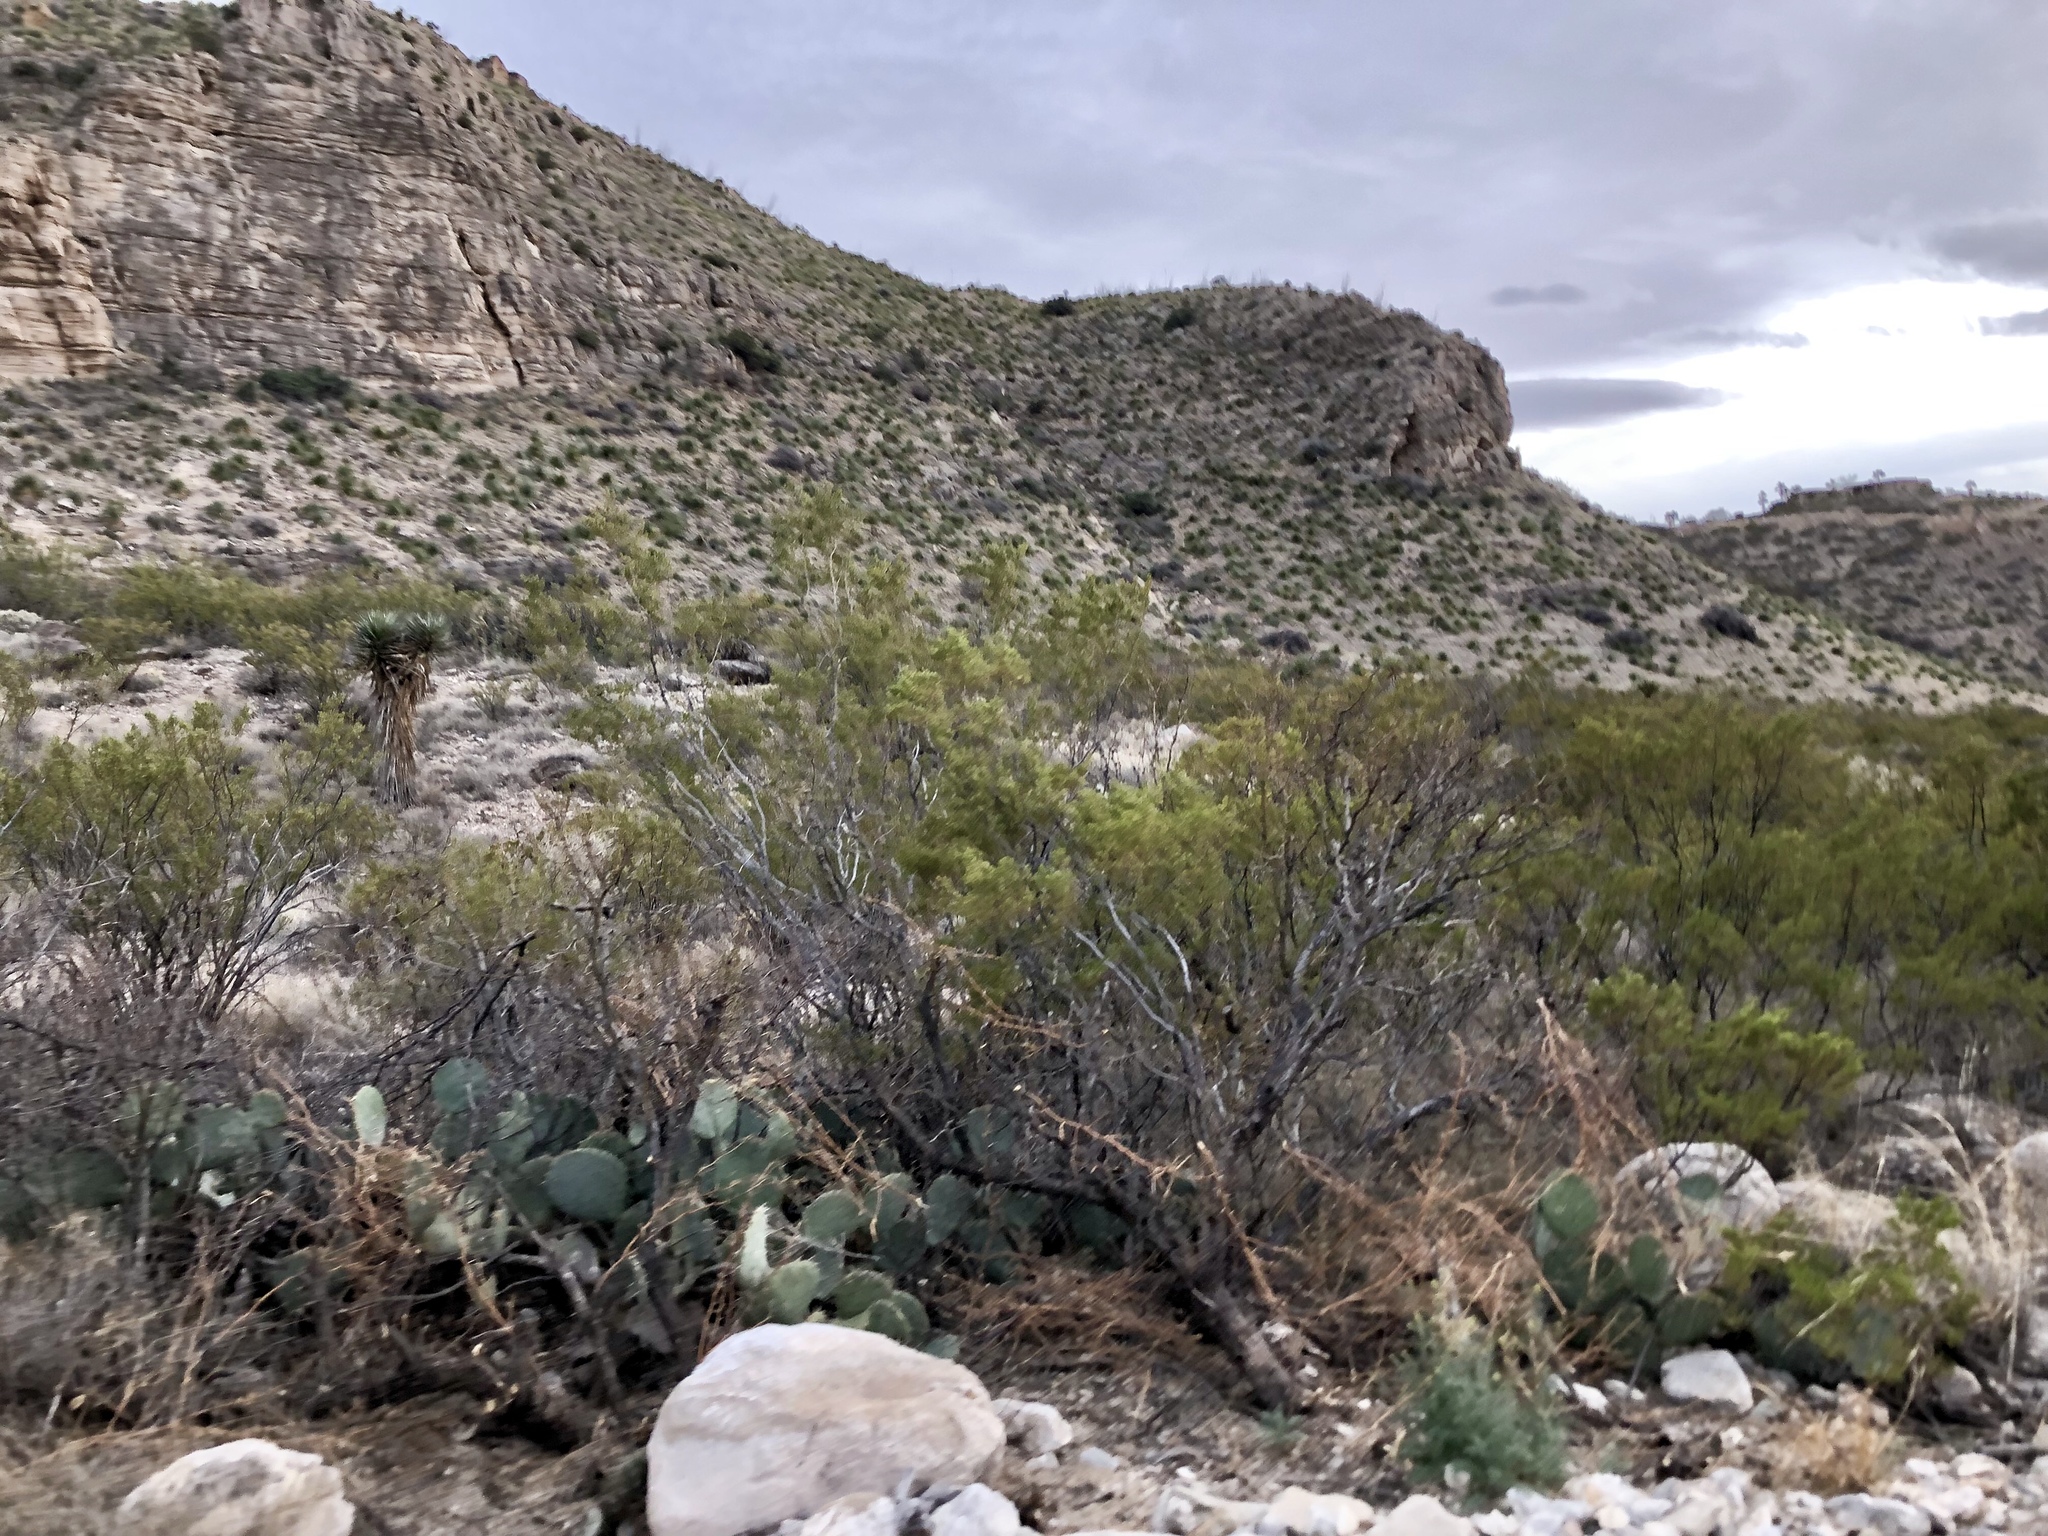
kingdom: Plantae
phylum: Tracheophyta
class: Magnoliopsida
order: Zygophyllales
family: Zygophyllaceae
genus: Larrea
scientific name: Larrea tridentata
